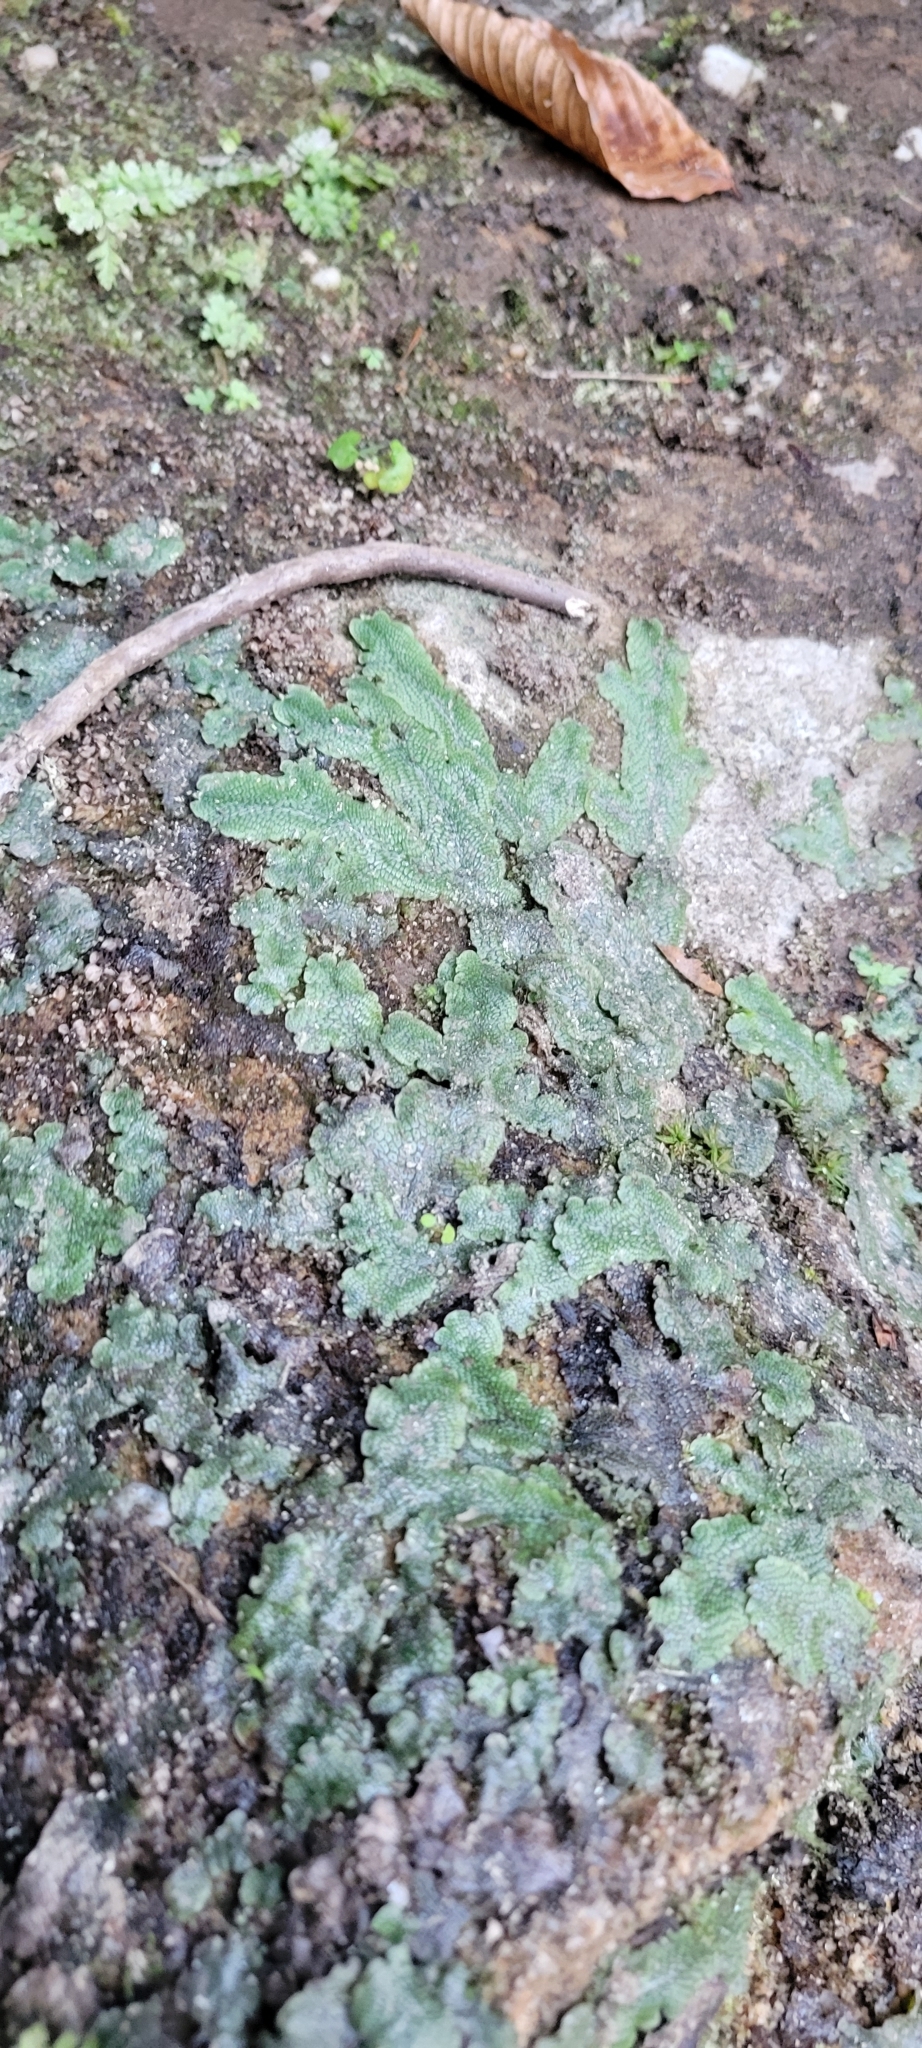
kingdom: Plantae
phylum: Marchantiophyta
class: Marchantiopsida
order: Marchantiales
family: Conocephalaceae
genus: Conocephalum
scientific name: Conocephalum salebrosum
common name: Cat-tongue liverwort
